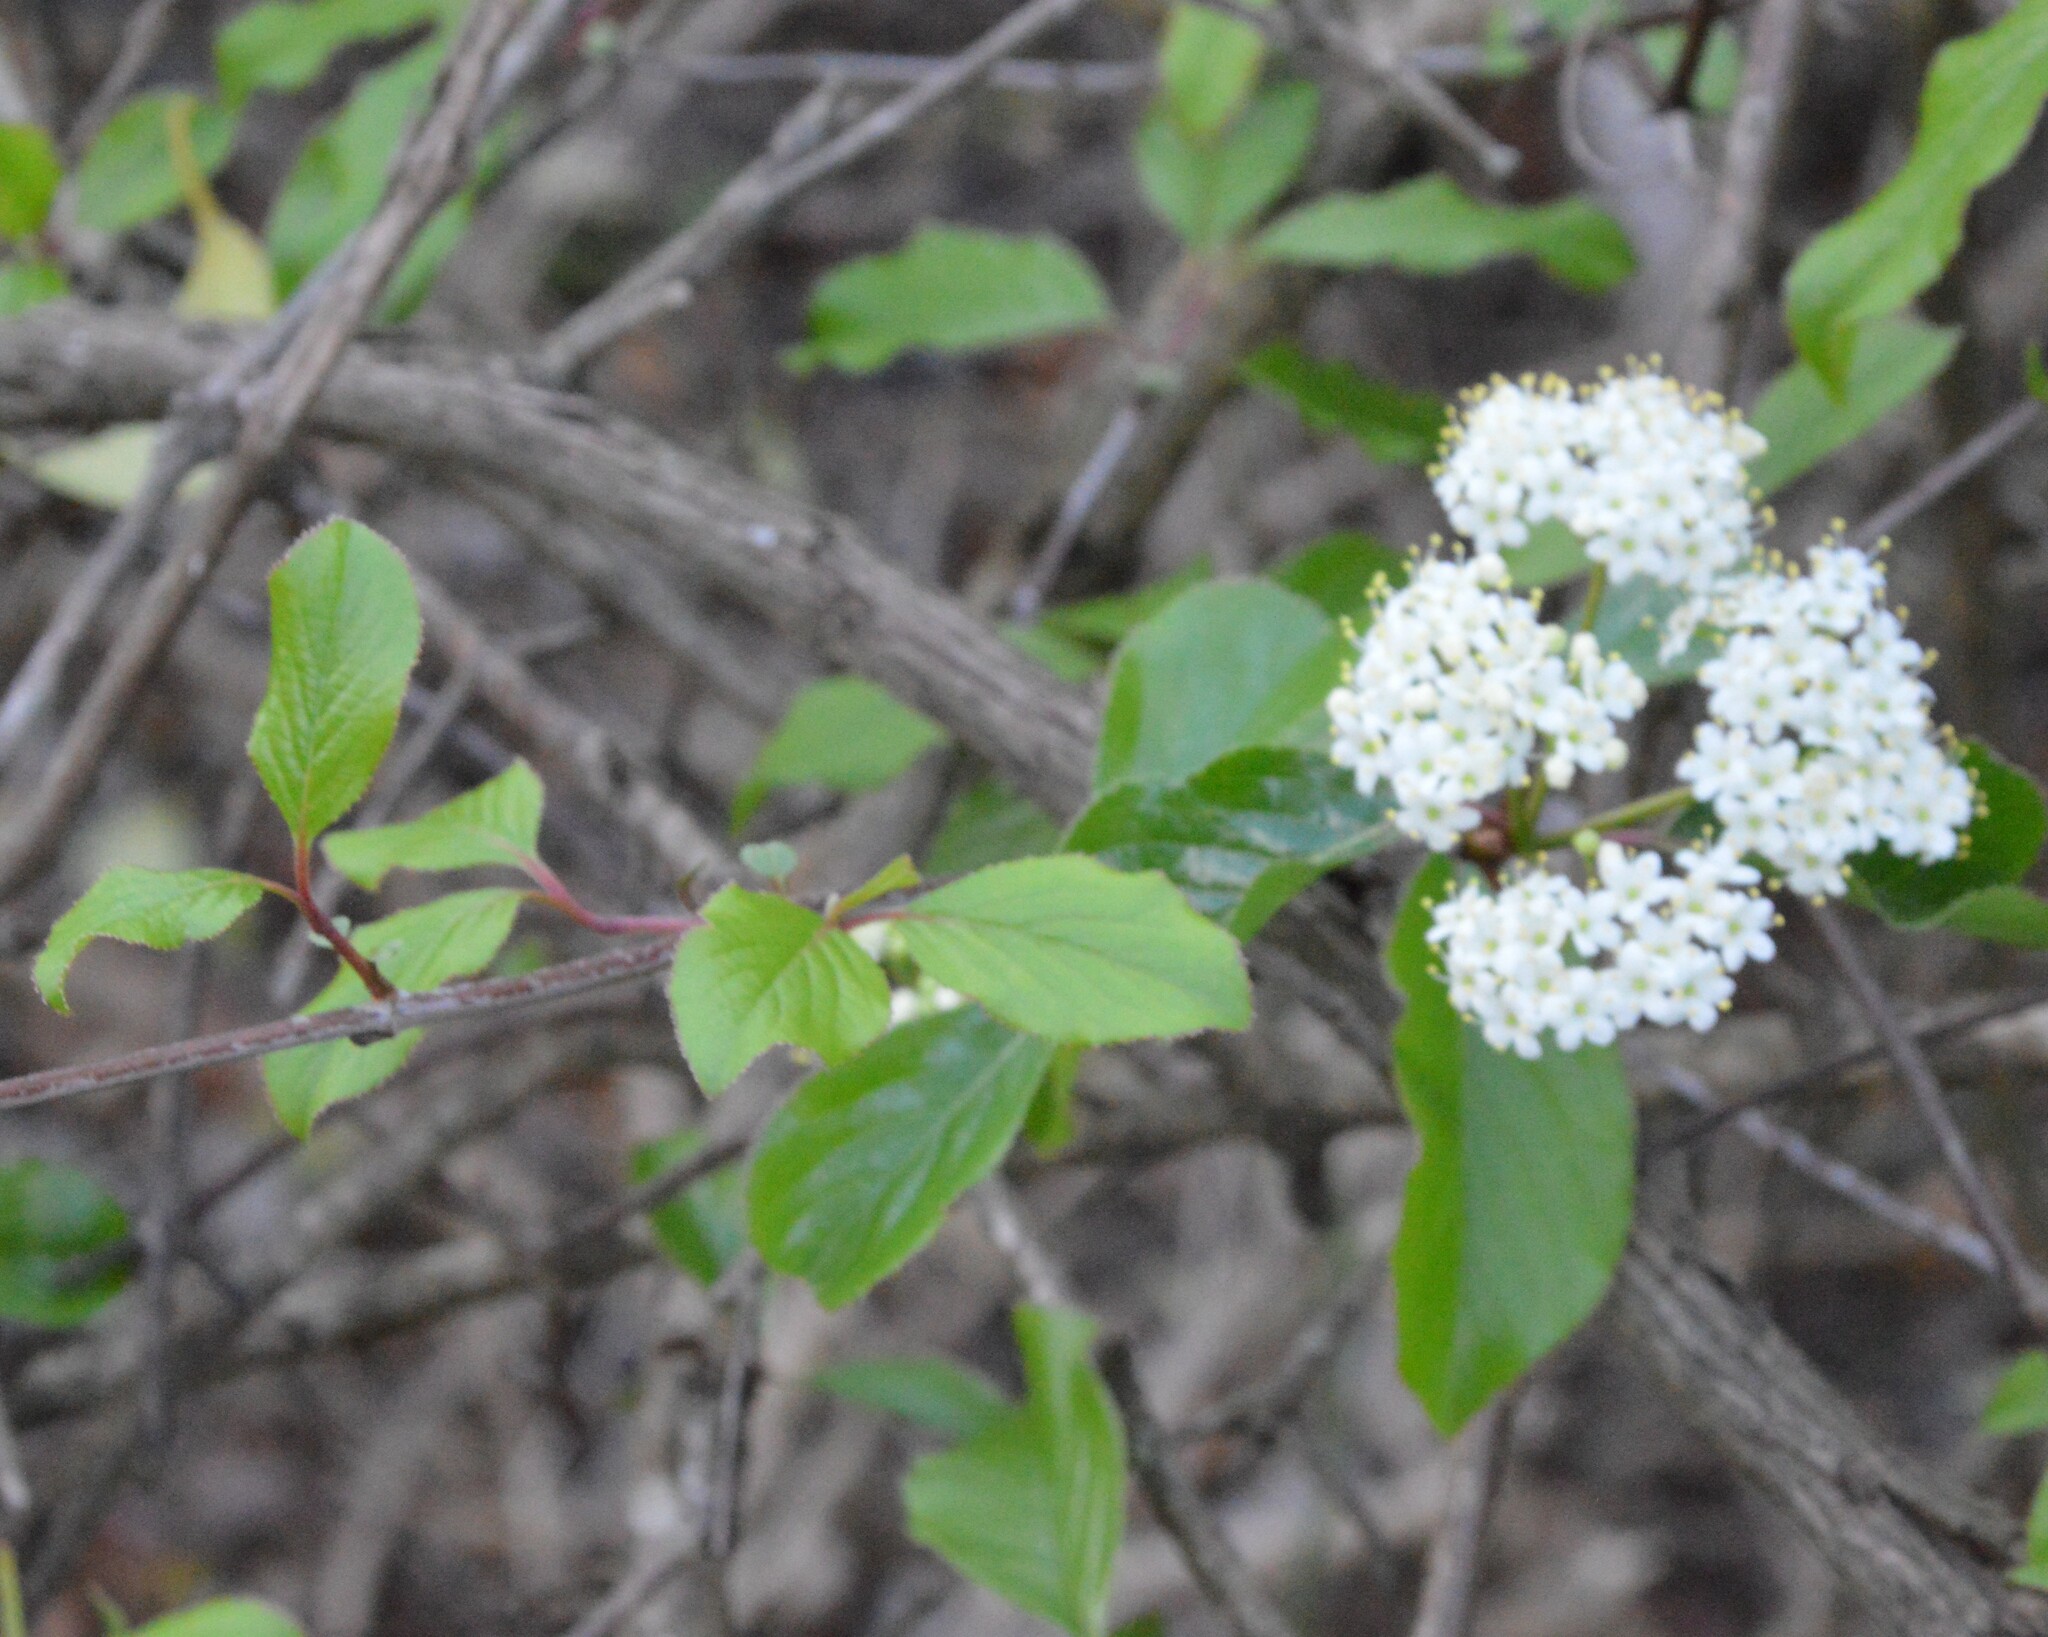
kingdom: Plantae
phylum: Tracheophyta
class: Magnoliopsida
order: Dipsacales
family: Viburnaceae
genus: Viburnum
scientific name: Viburnum rufidulum
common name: Blue haw
